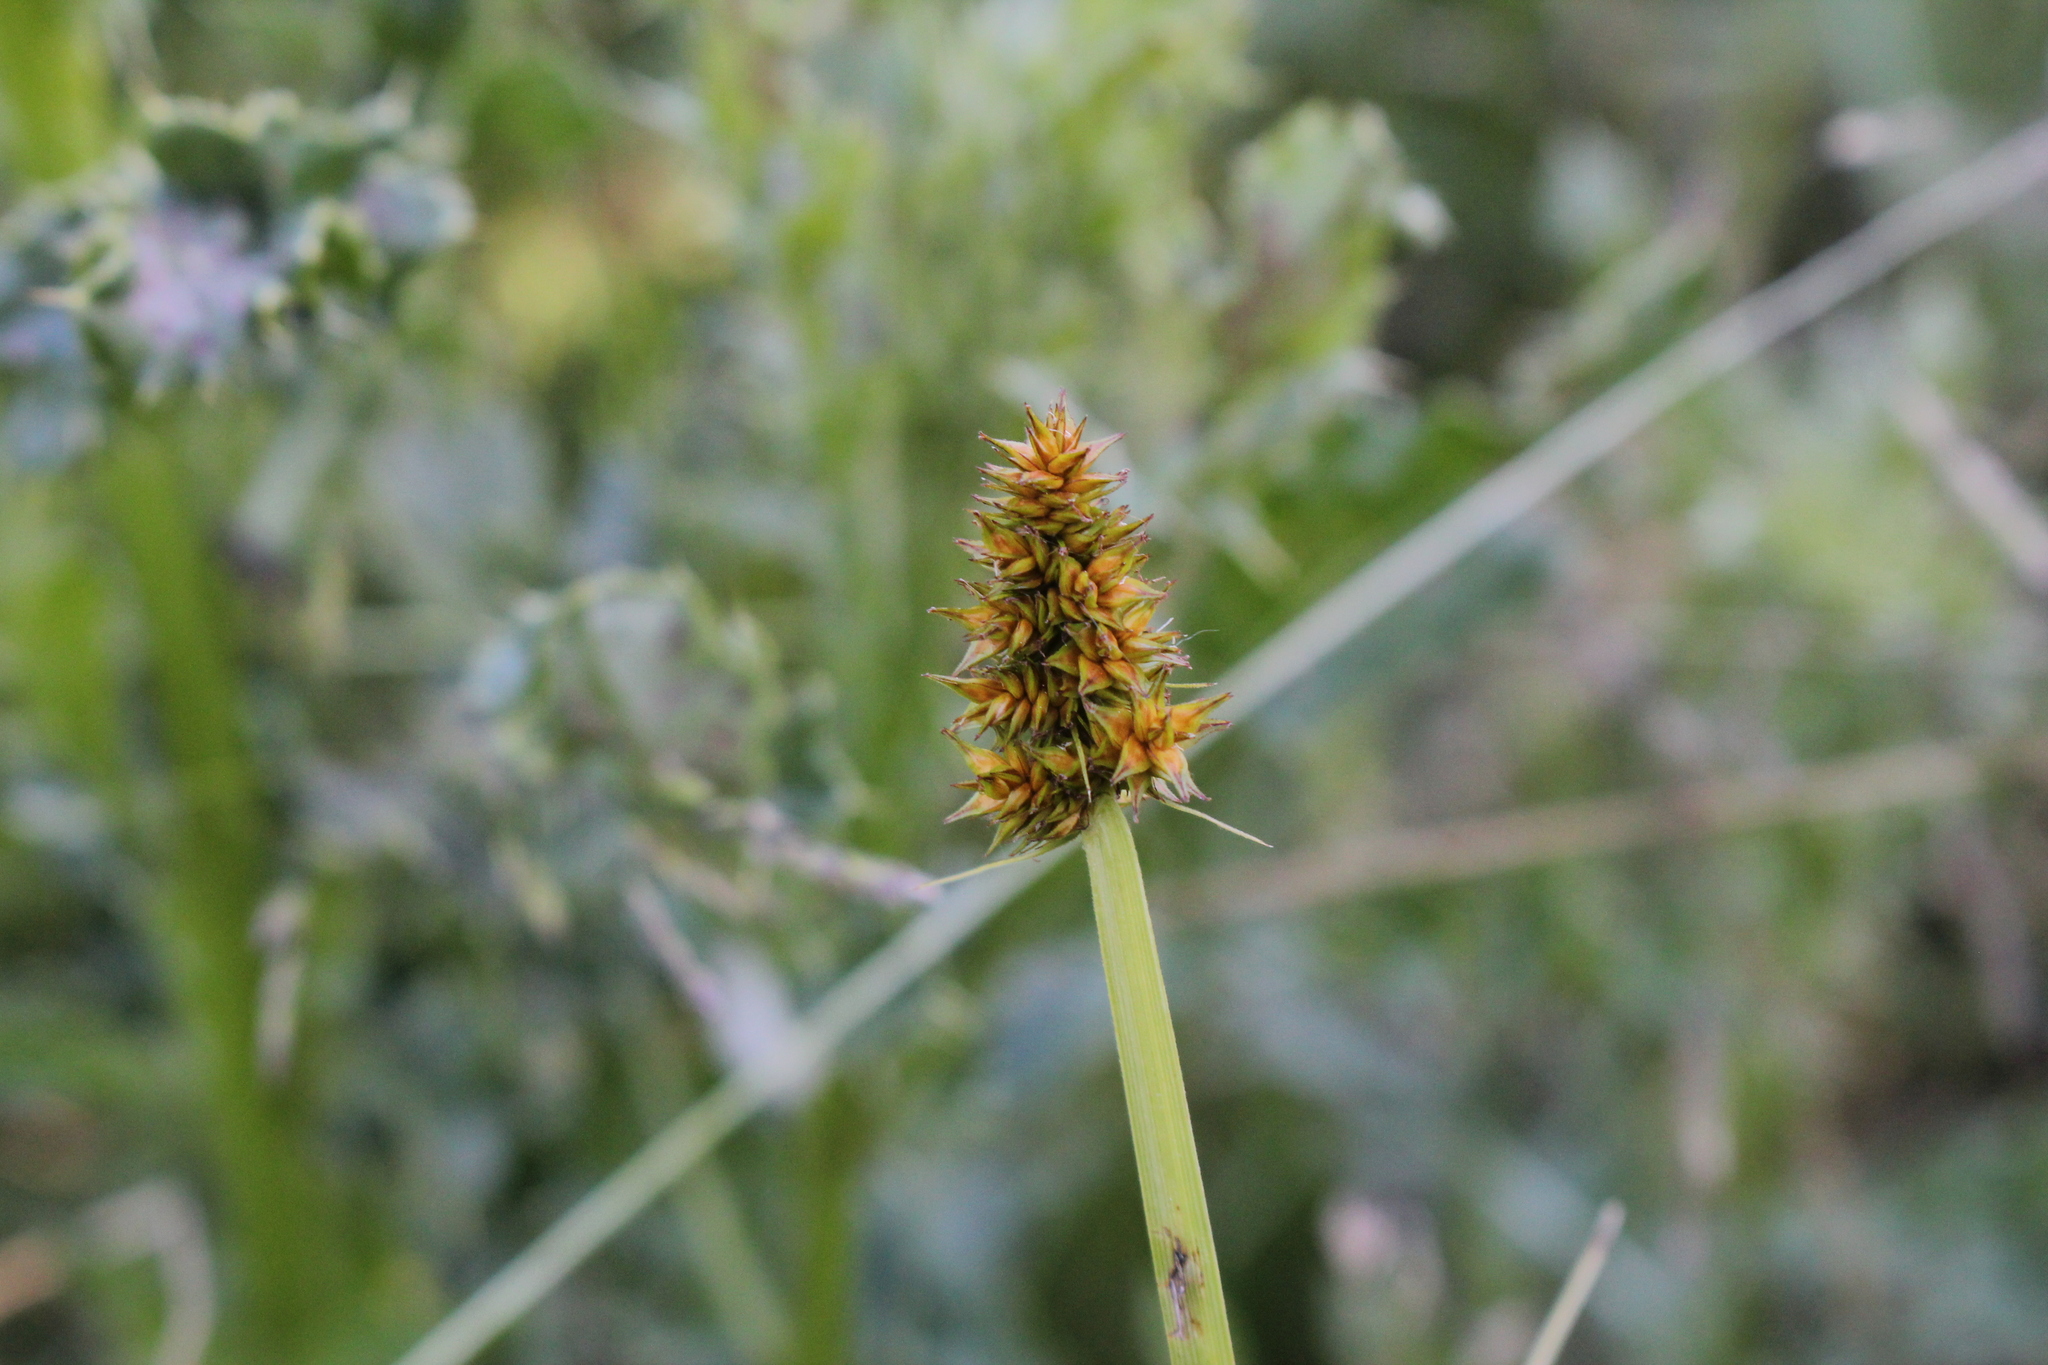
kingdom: Plantae
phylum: Tracheophyta
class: Liliopsida
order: Poales
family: Cyperaceae
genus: Carex
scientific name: Carex alopecoidea
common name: Brown-headed fox sedge
